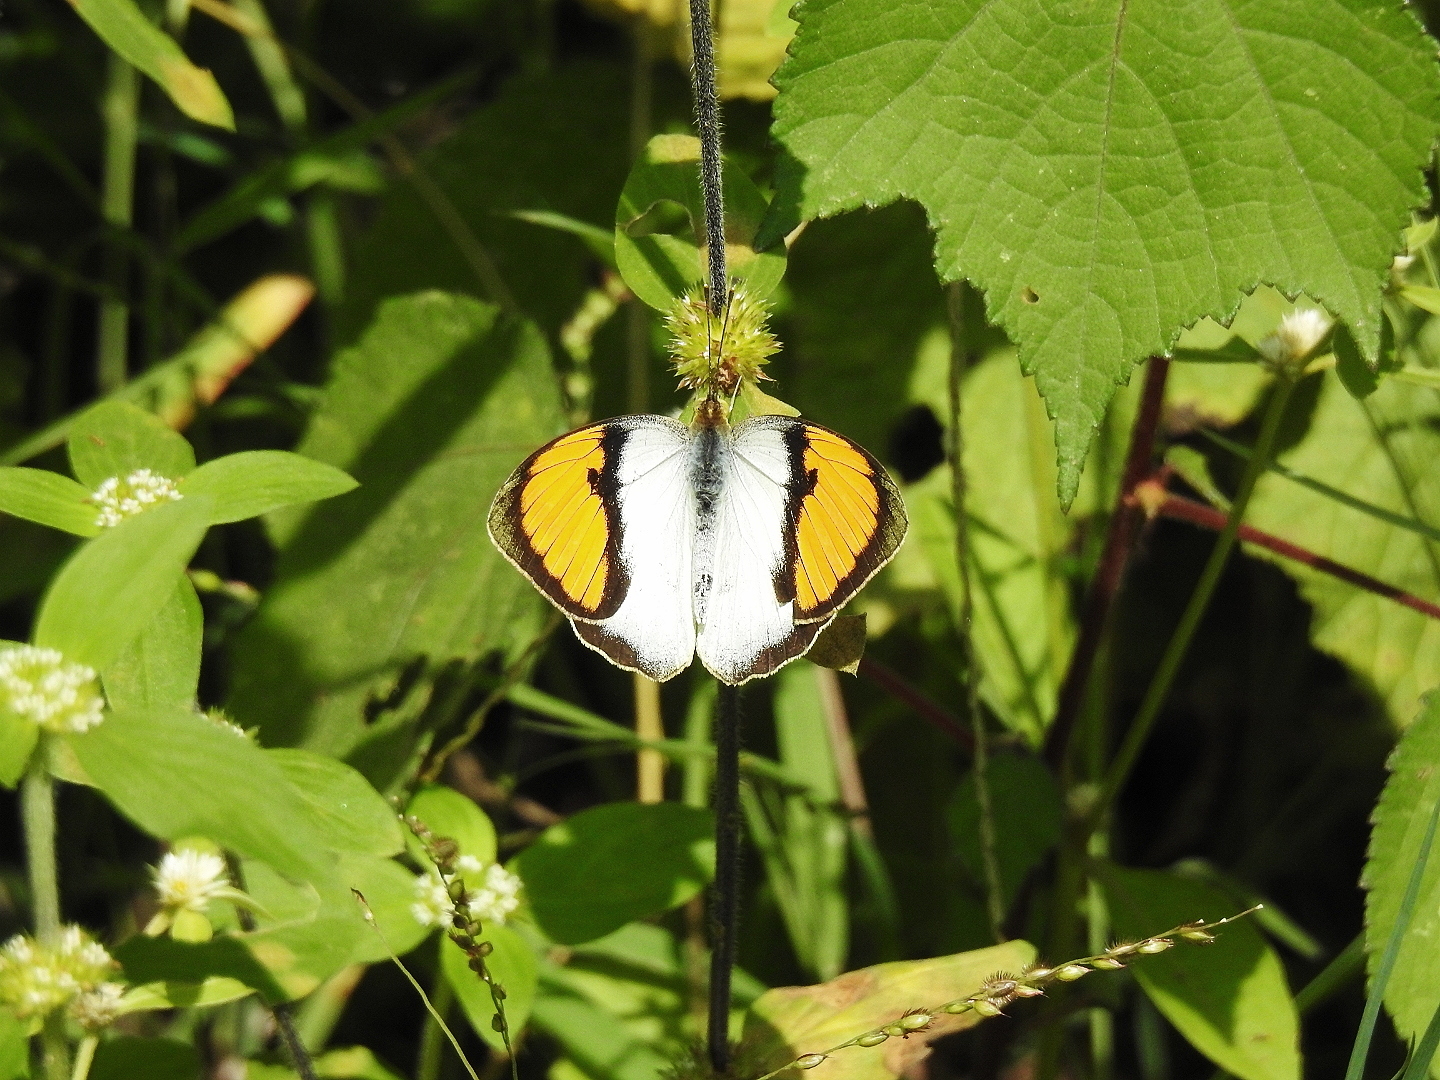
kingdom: Animalia
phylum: Arthropoda
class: Insecta
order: Lepidoptera
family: Pieridae
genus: Ixias
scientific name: Ixias marianne
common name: White orange tip
